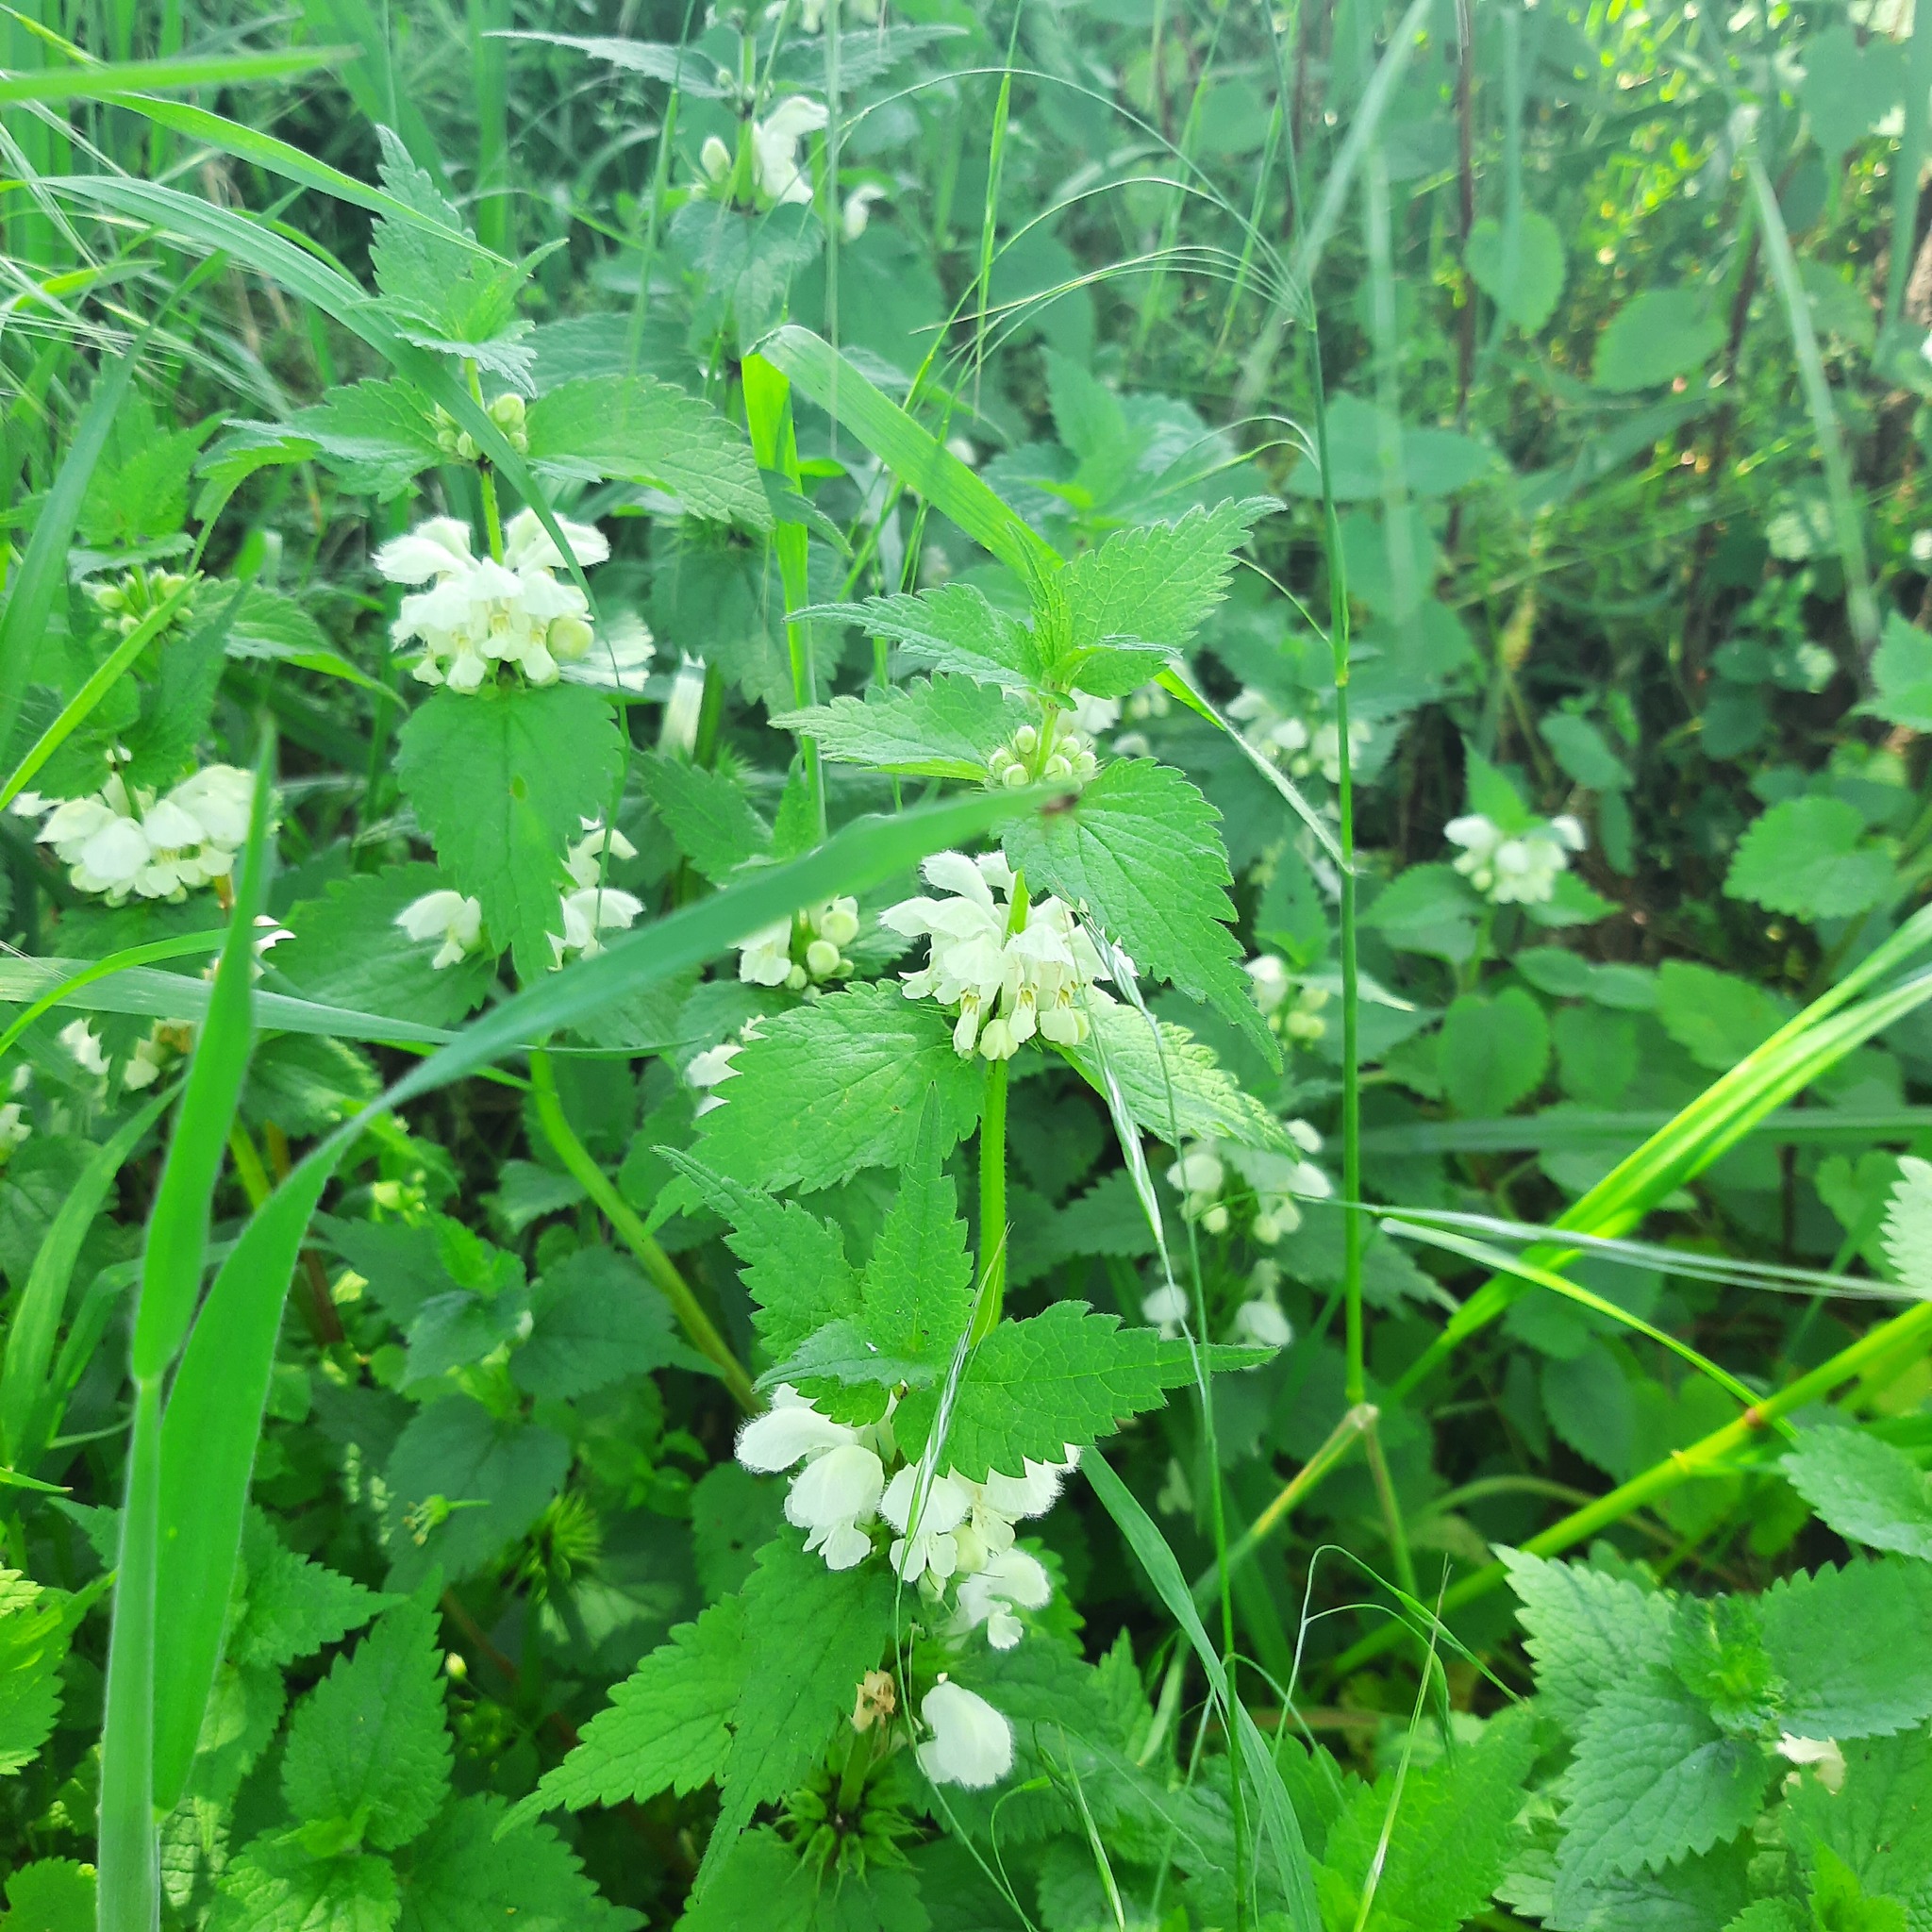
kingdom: Plantae
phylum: Tracheophyta
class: Magnoliopsida
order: Lamiales
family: Lamiaceae
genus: Lamium
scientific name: Lamium album
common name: White dead-nettle
